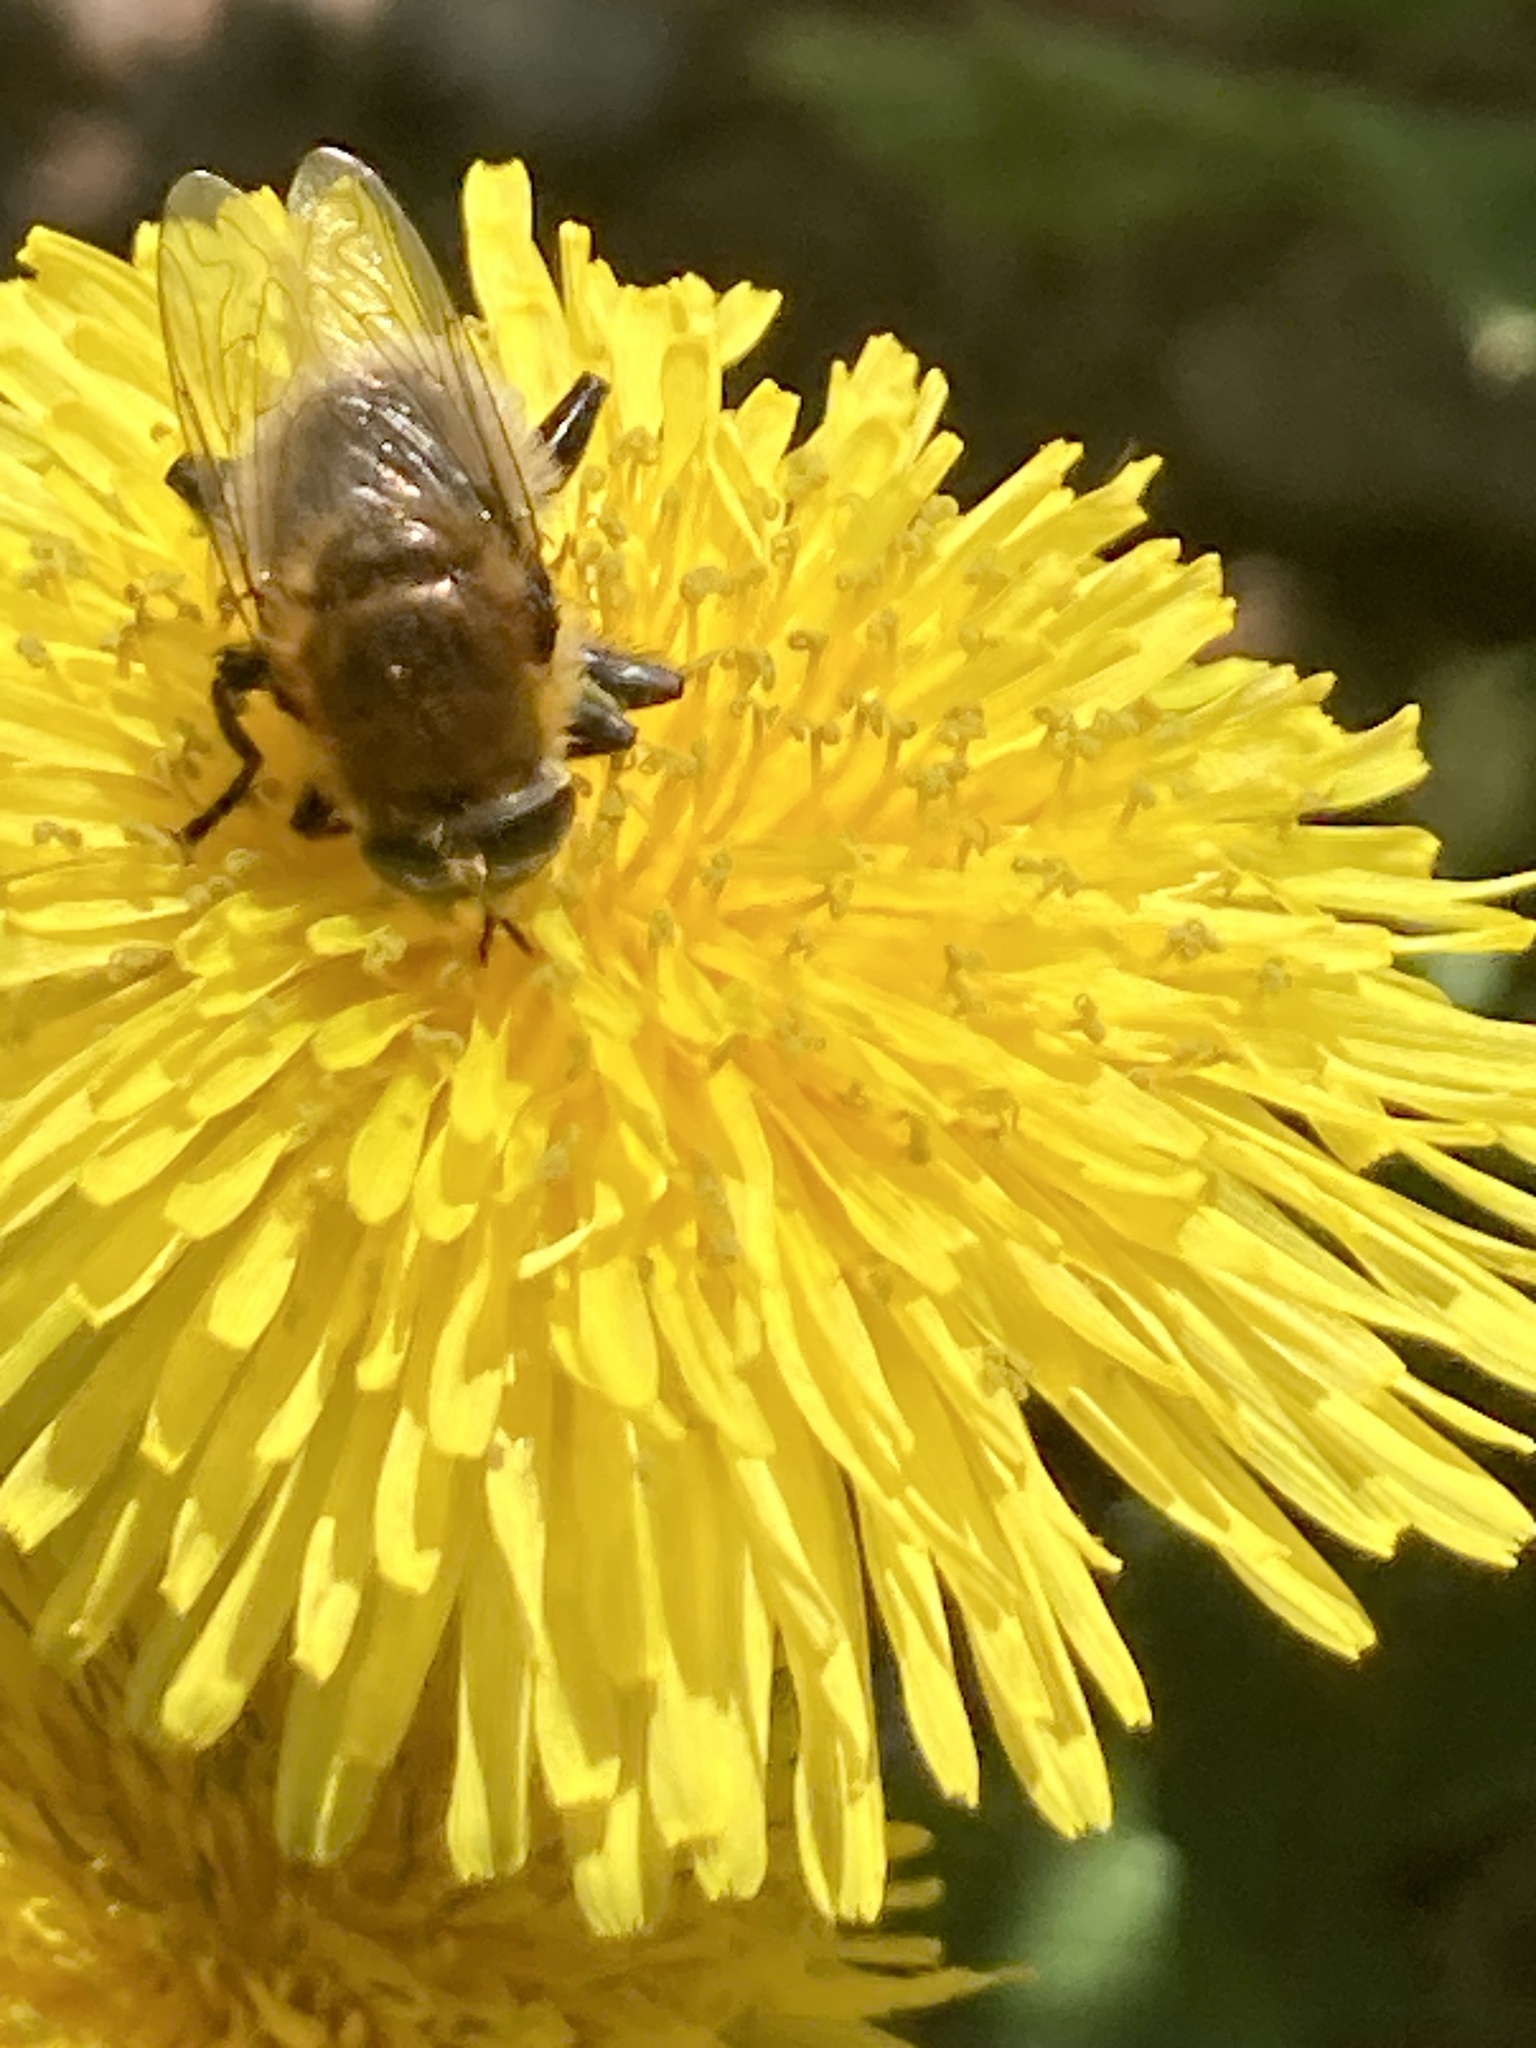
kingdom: Animalia
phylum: Arthropoda
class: Insecta
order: Diptera
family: Syrphidae
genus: Merodon
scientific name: Merodon equestris
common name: Greater bulb-fly
